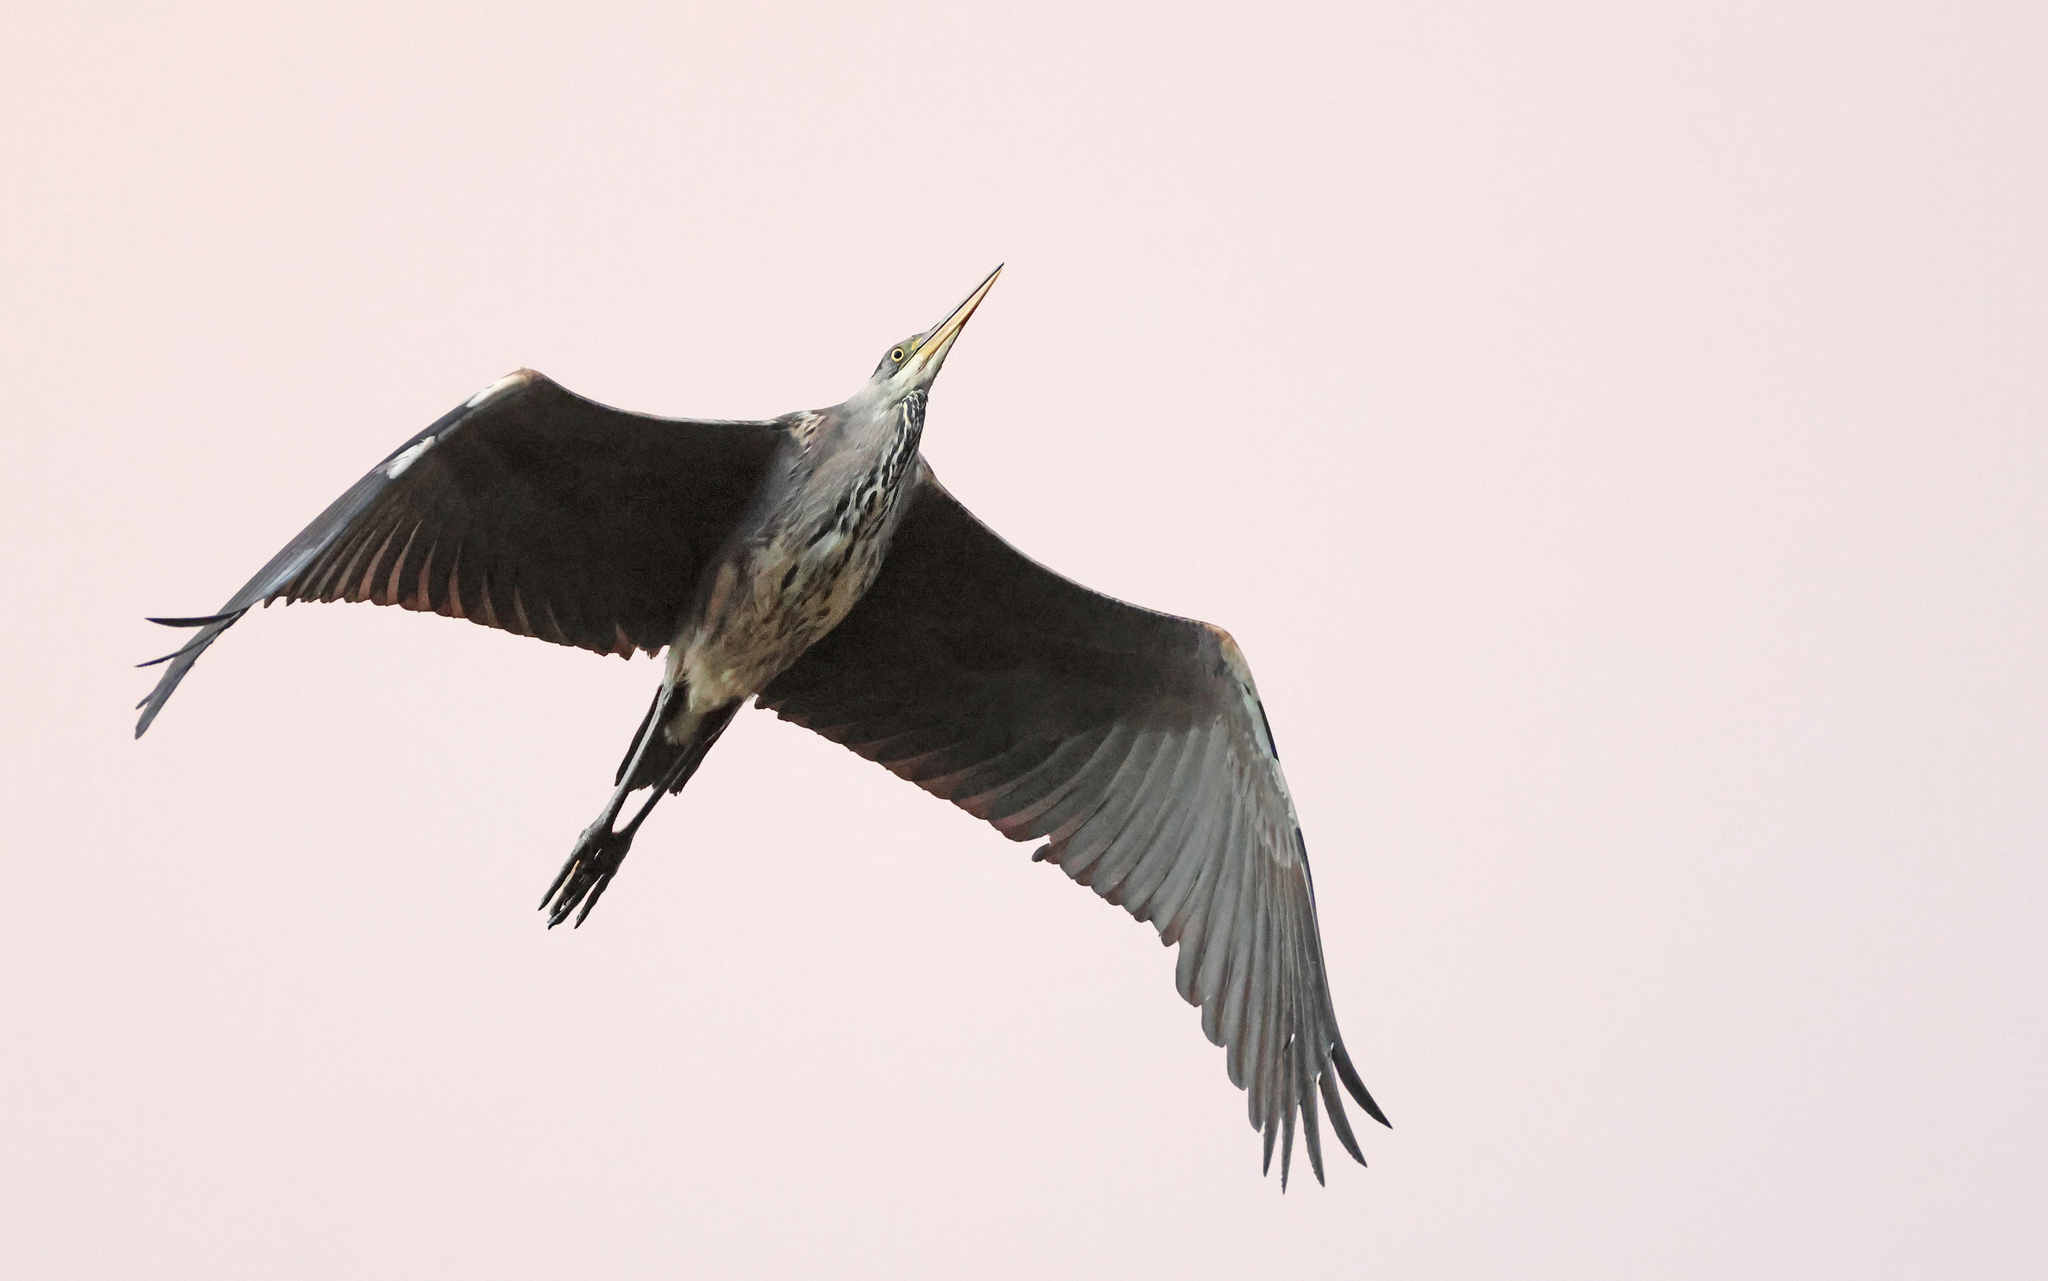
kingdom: Animalia
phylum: Chordata
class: Aves
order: Pelecaniformes
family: Ardeidae
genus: Ardea
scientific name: Ardea cinerea
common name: Grey heron
